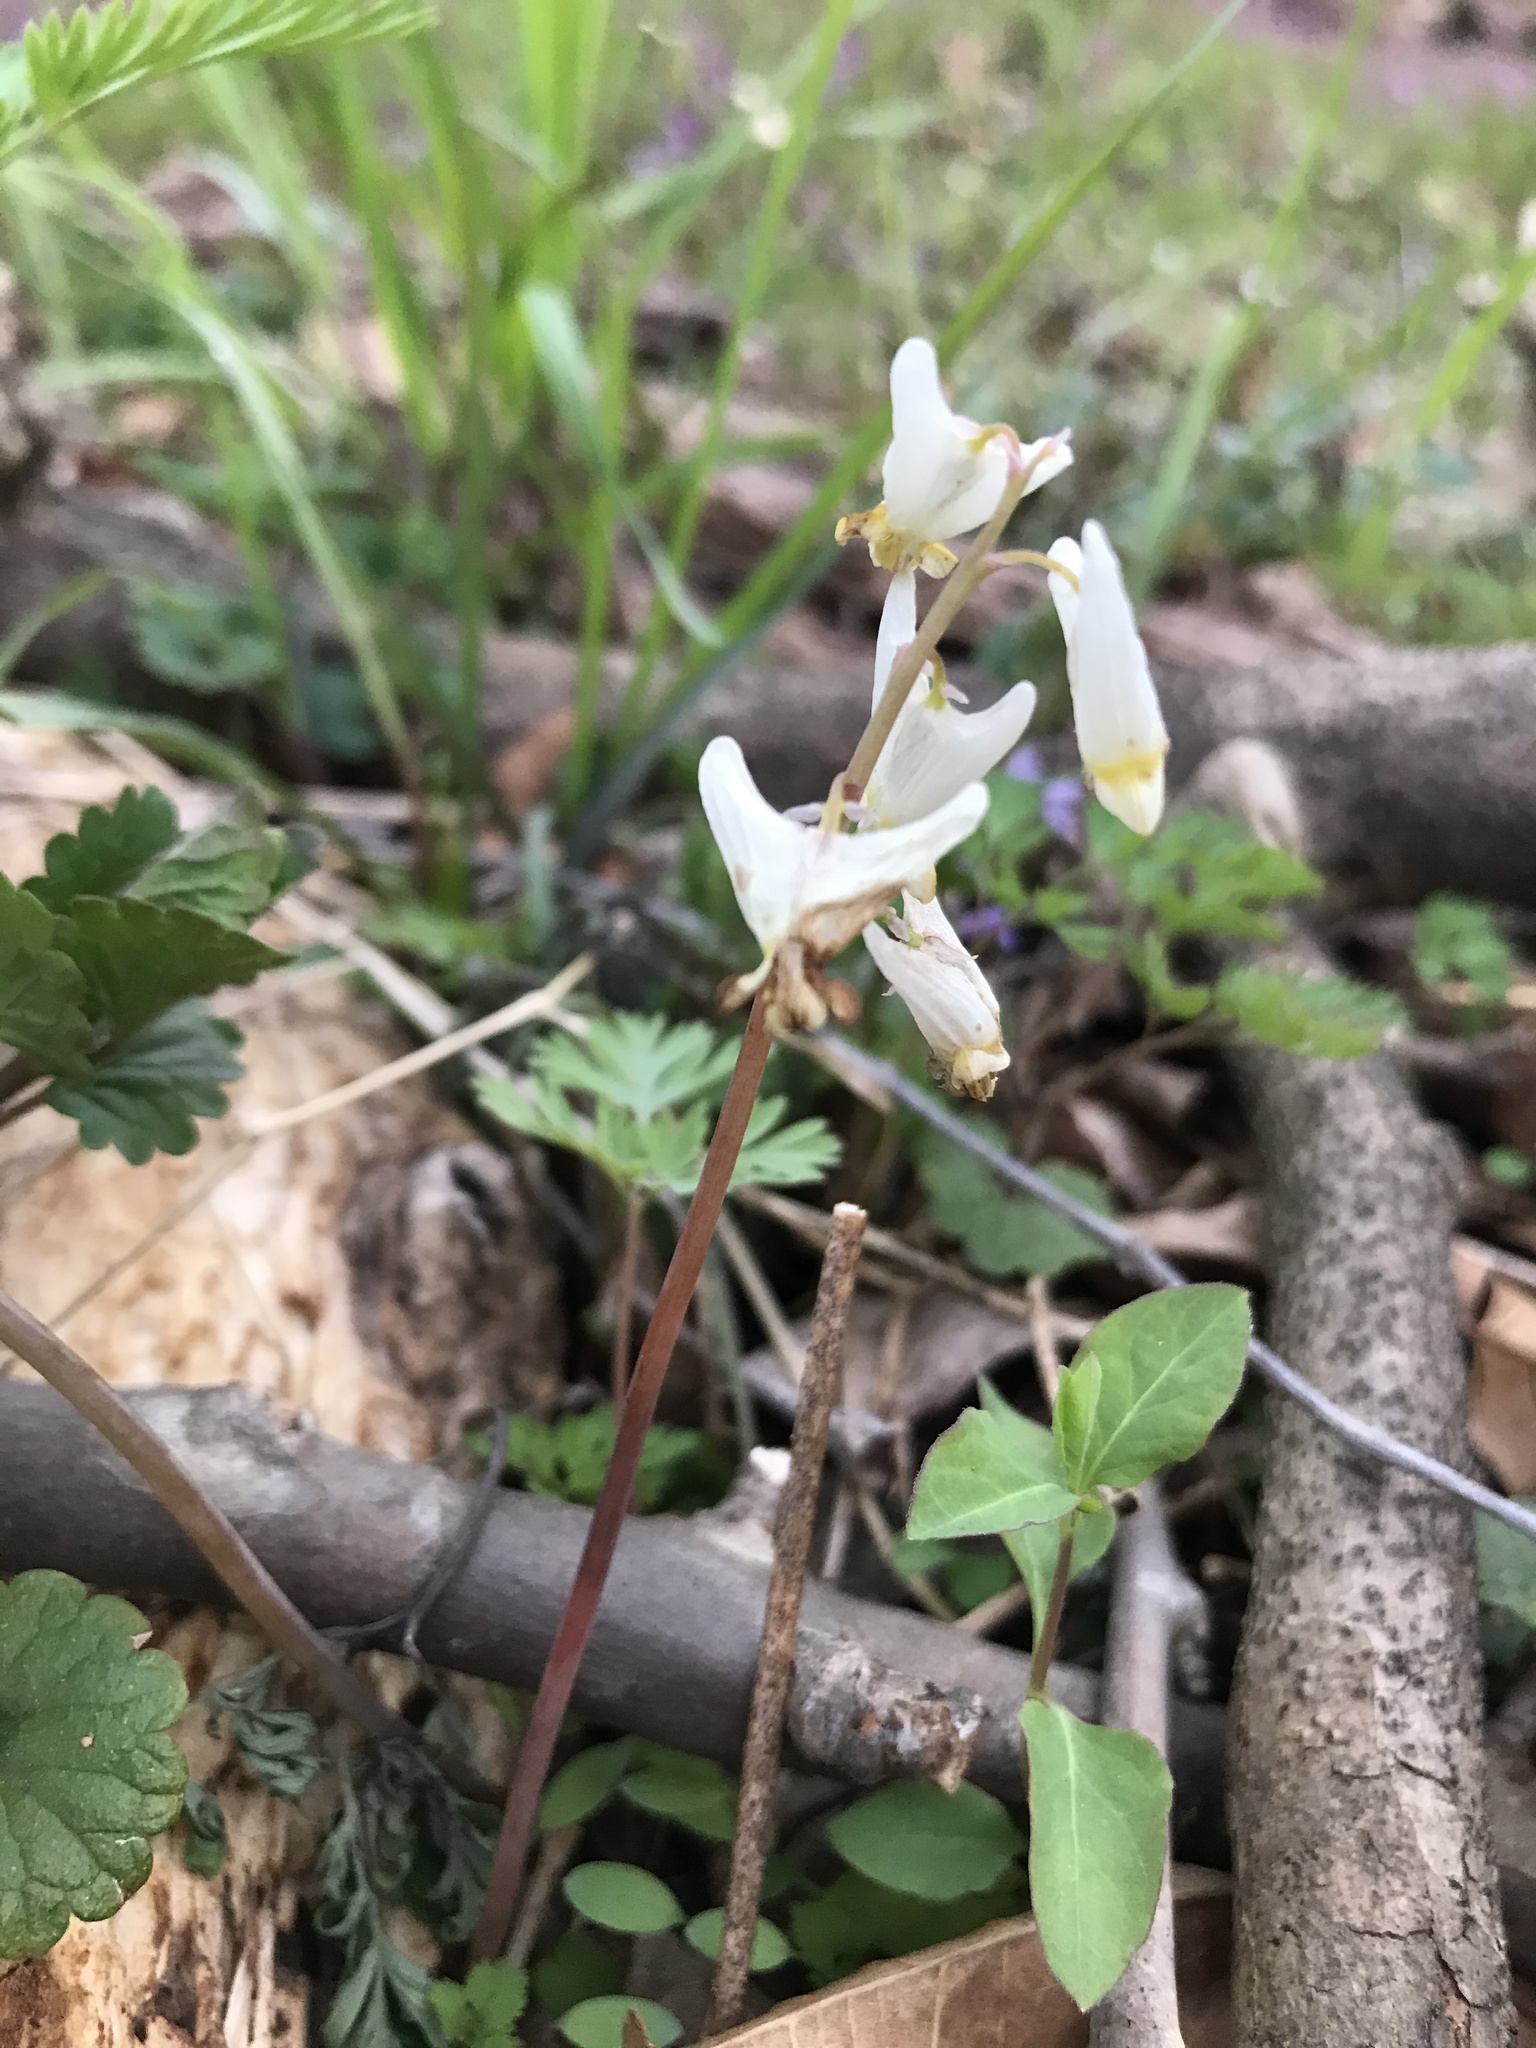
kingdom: Plantae
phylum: Tracheophyta
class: Magnoliopsida
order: Ranunculales
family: Papaveraceae
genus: Dicentra
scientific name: Dicentra cucullaria
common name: Dutchman's breeches
